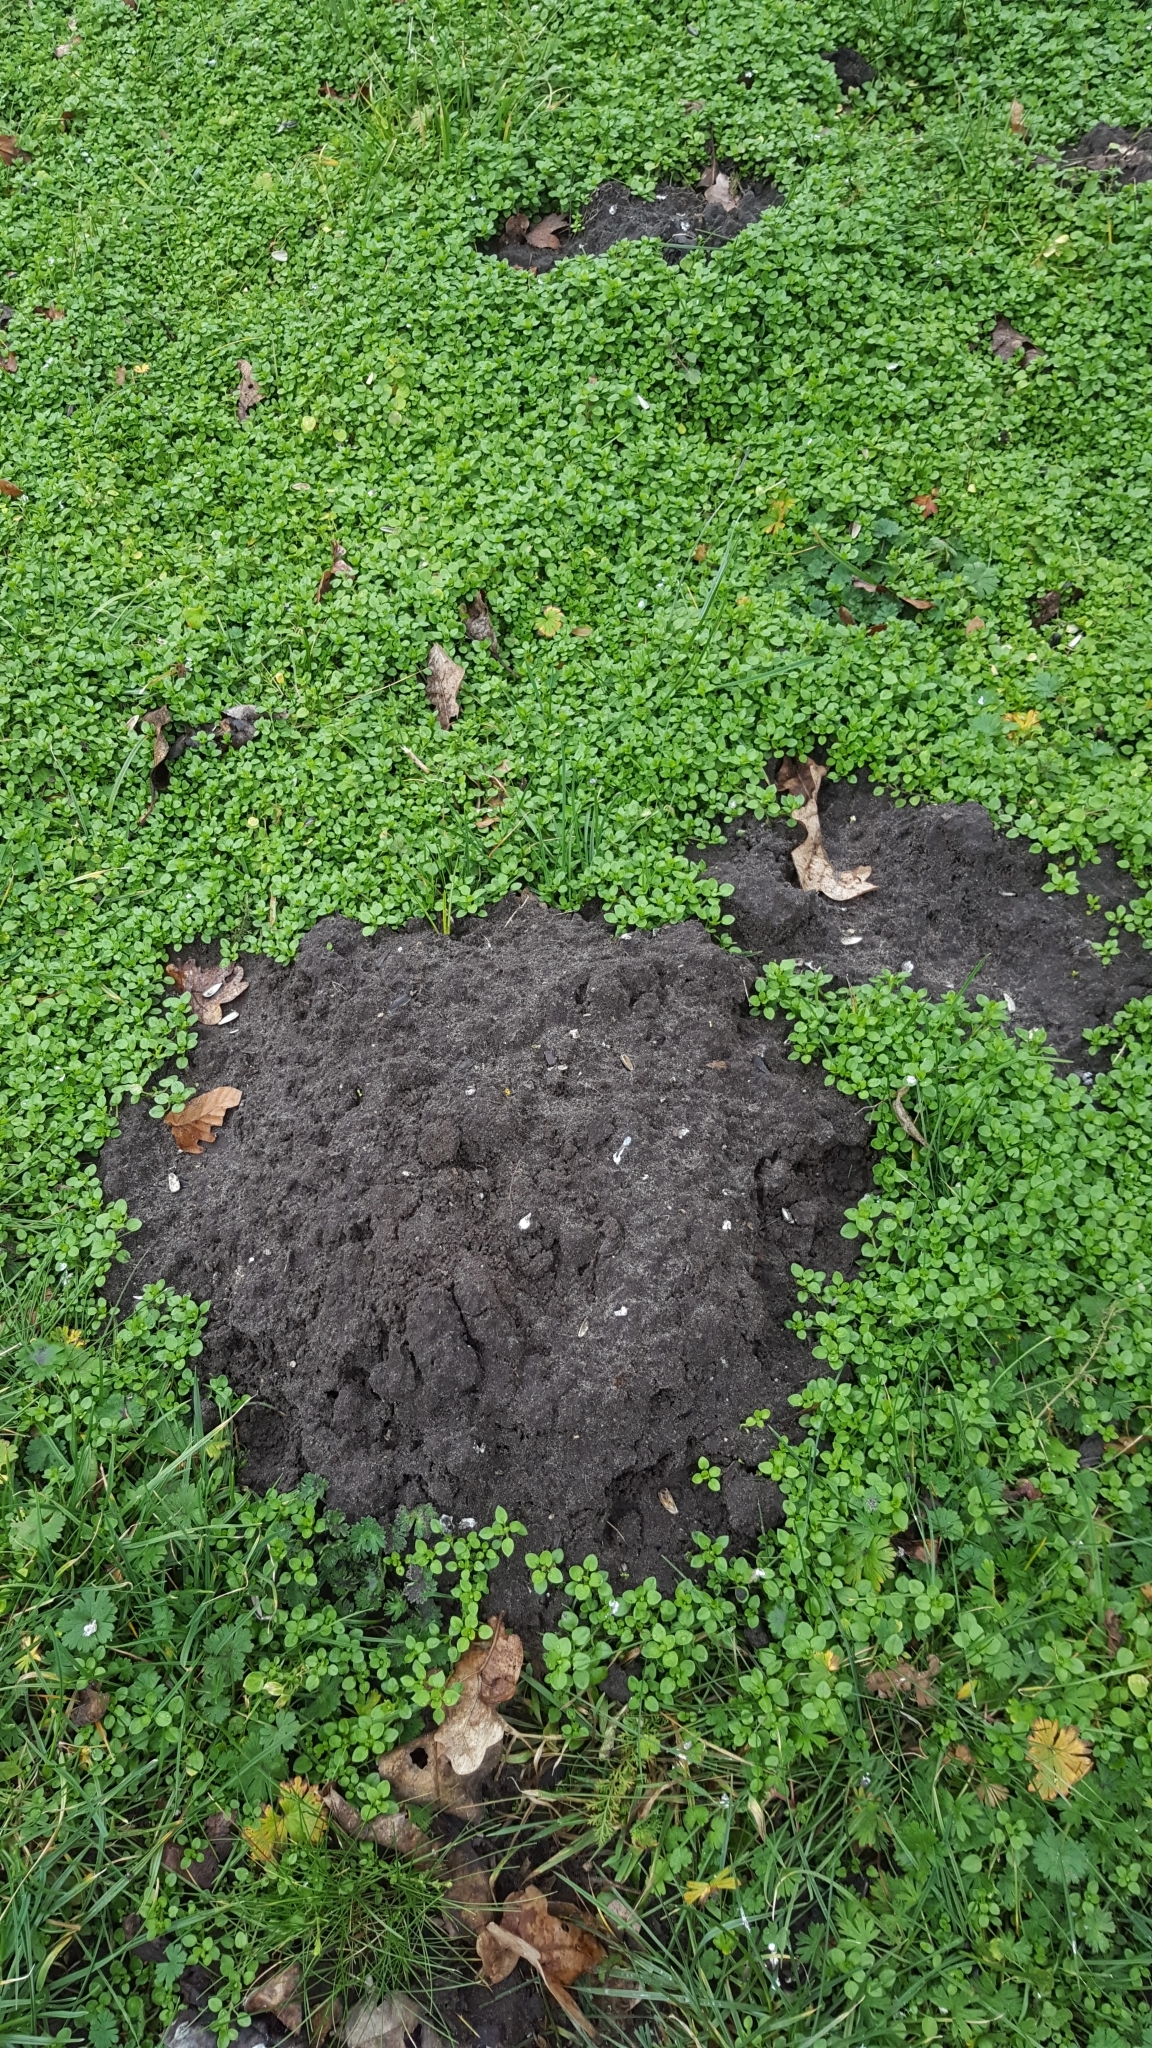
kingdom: Animalia
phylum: Chordata
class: Mammalia
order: Soricomorpha
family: Talpidae
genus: Talpa
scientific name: Talpa europaea
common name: European mole
